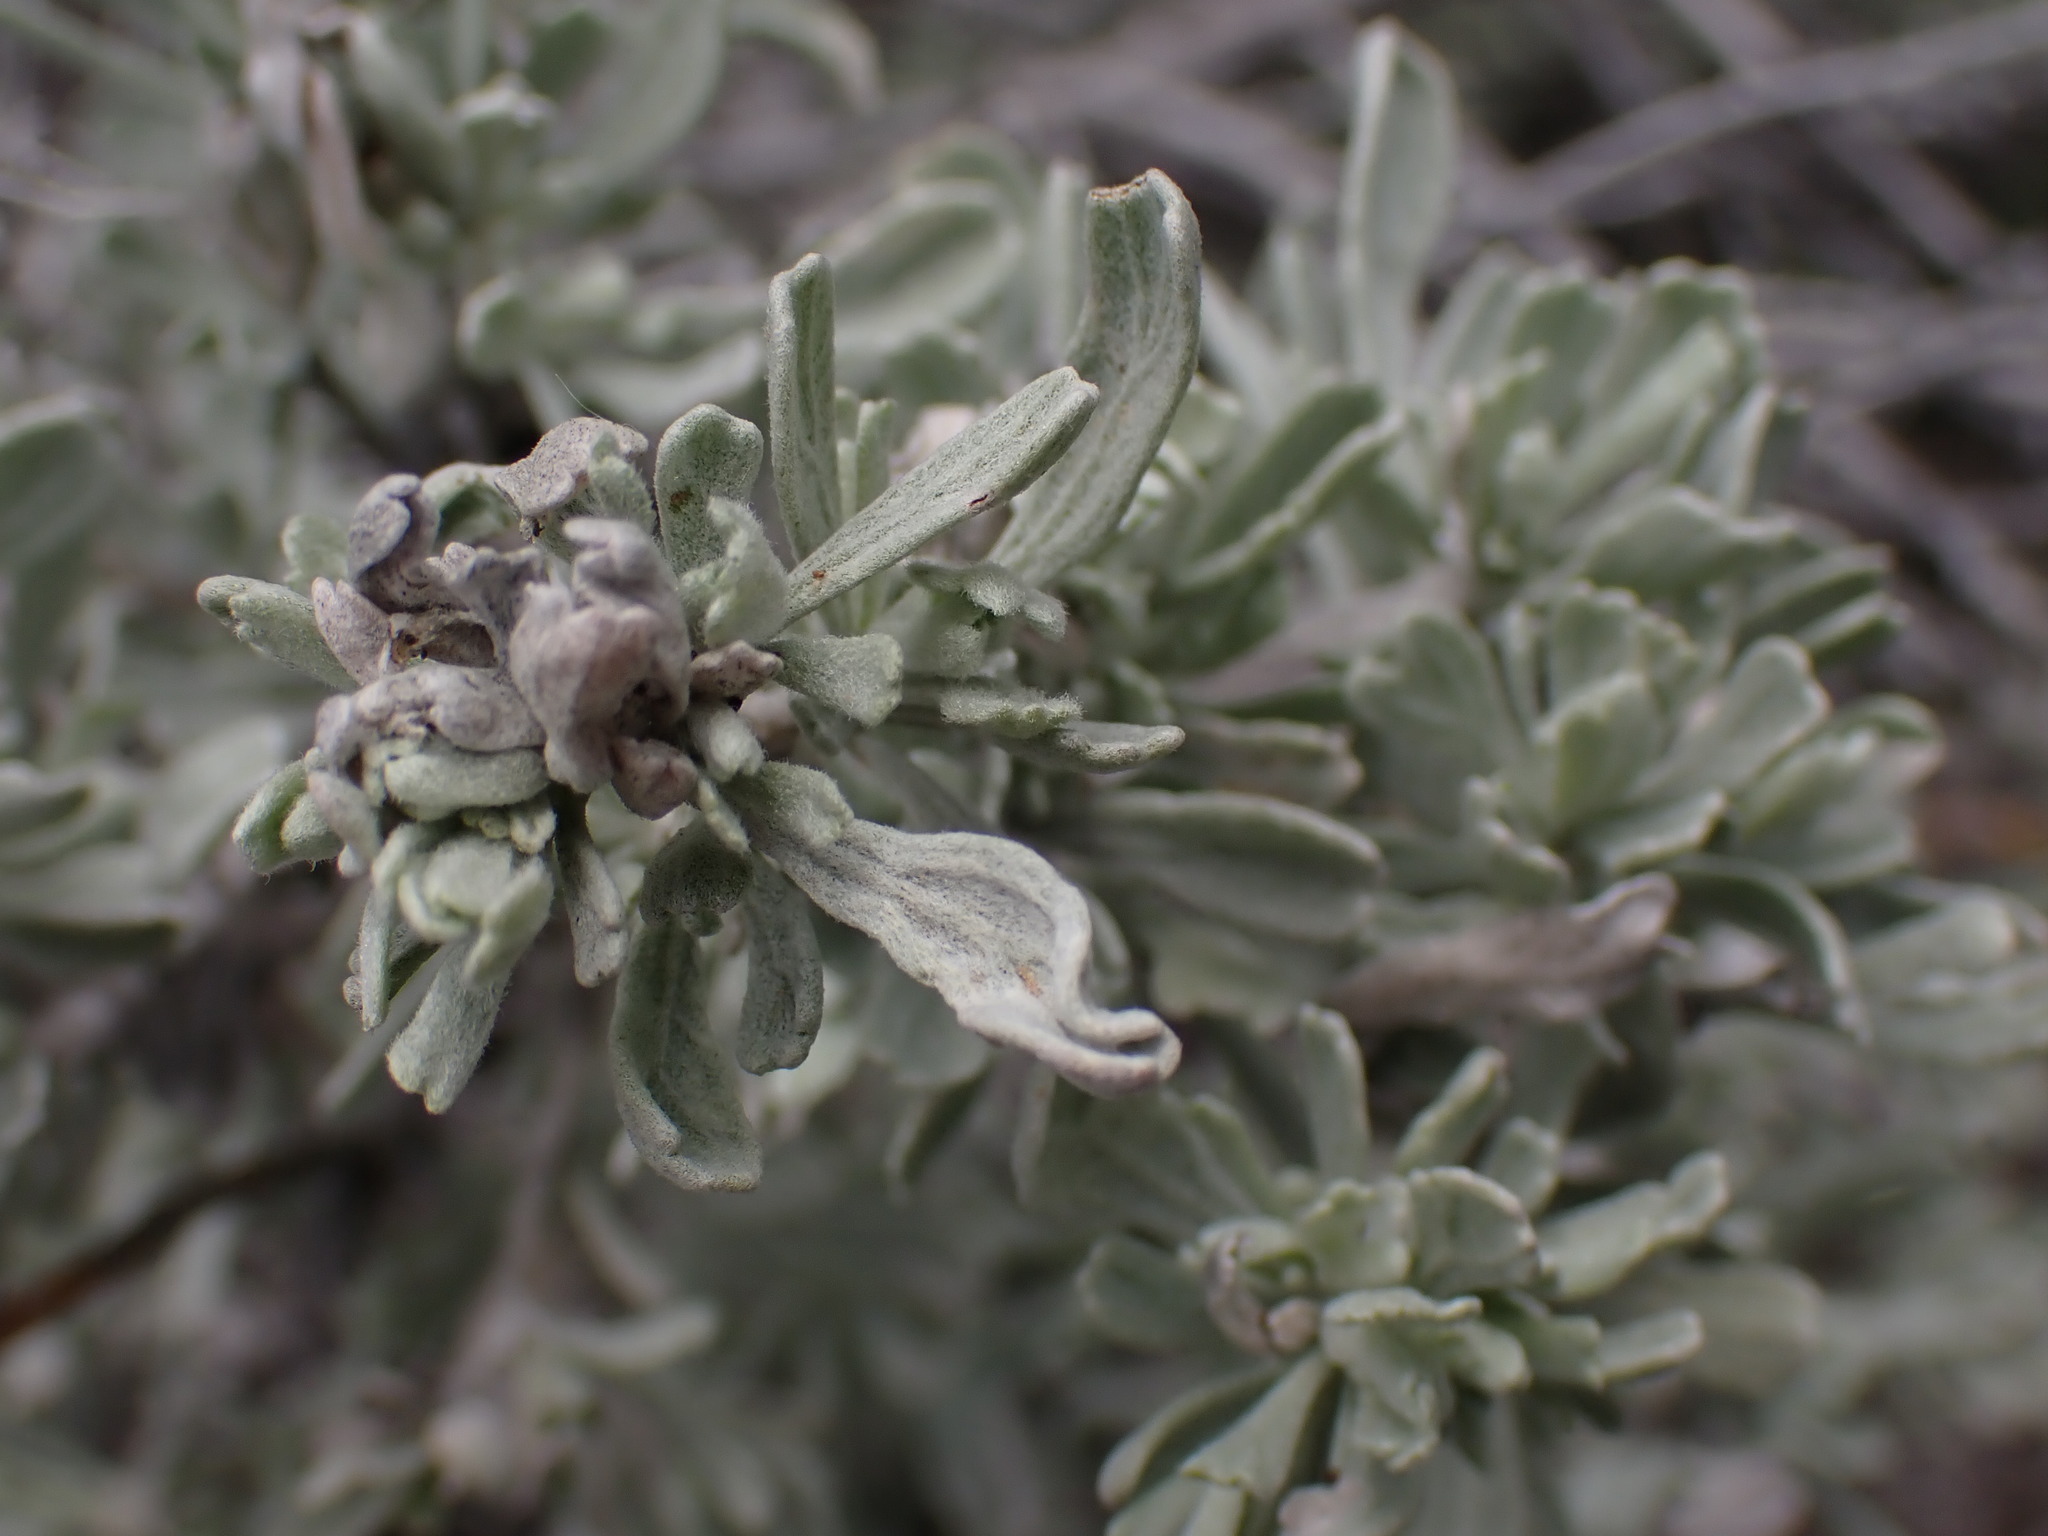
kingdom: Plantae
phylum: Tracheophyta
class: Magnoliopsida
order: Asterales
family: Asteraceae
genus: Artemisia
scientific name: Artemisia tridentata
